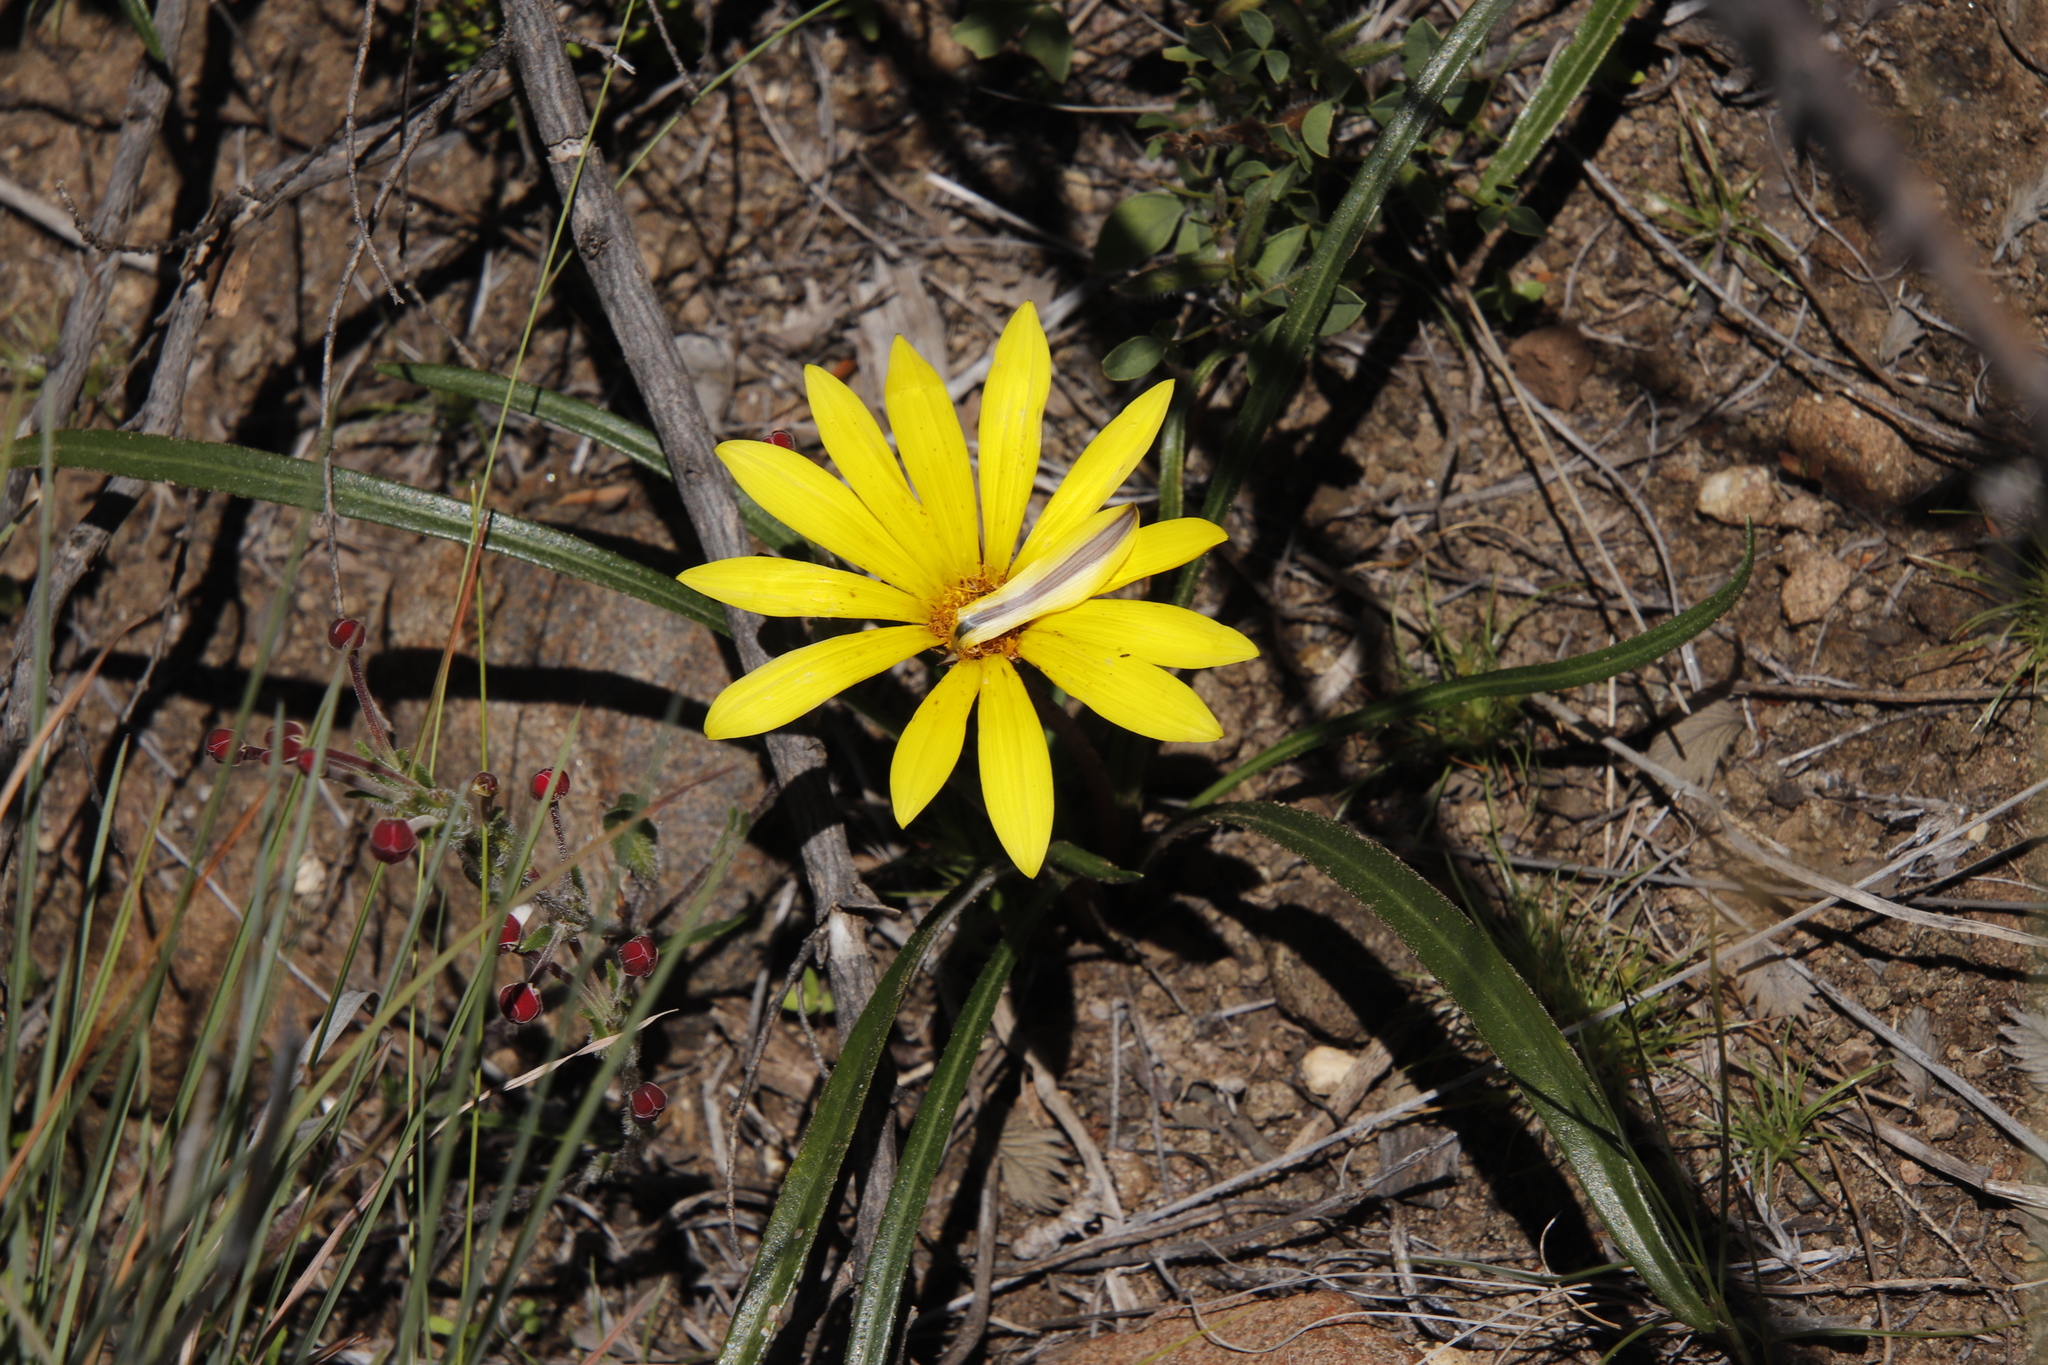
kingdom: Plantae
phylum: Tracheophyta
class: Magnoliopsida
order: Asterales
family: Asteraceae
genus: Gazania
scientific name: Gazania krebsiana
